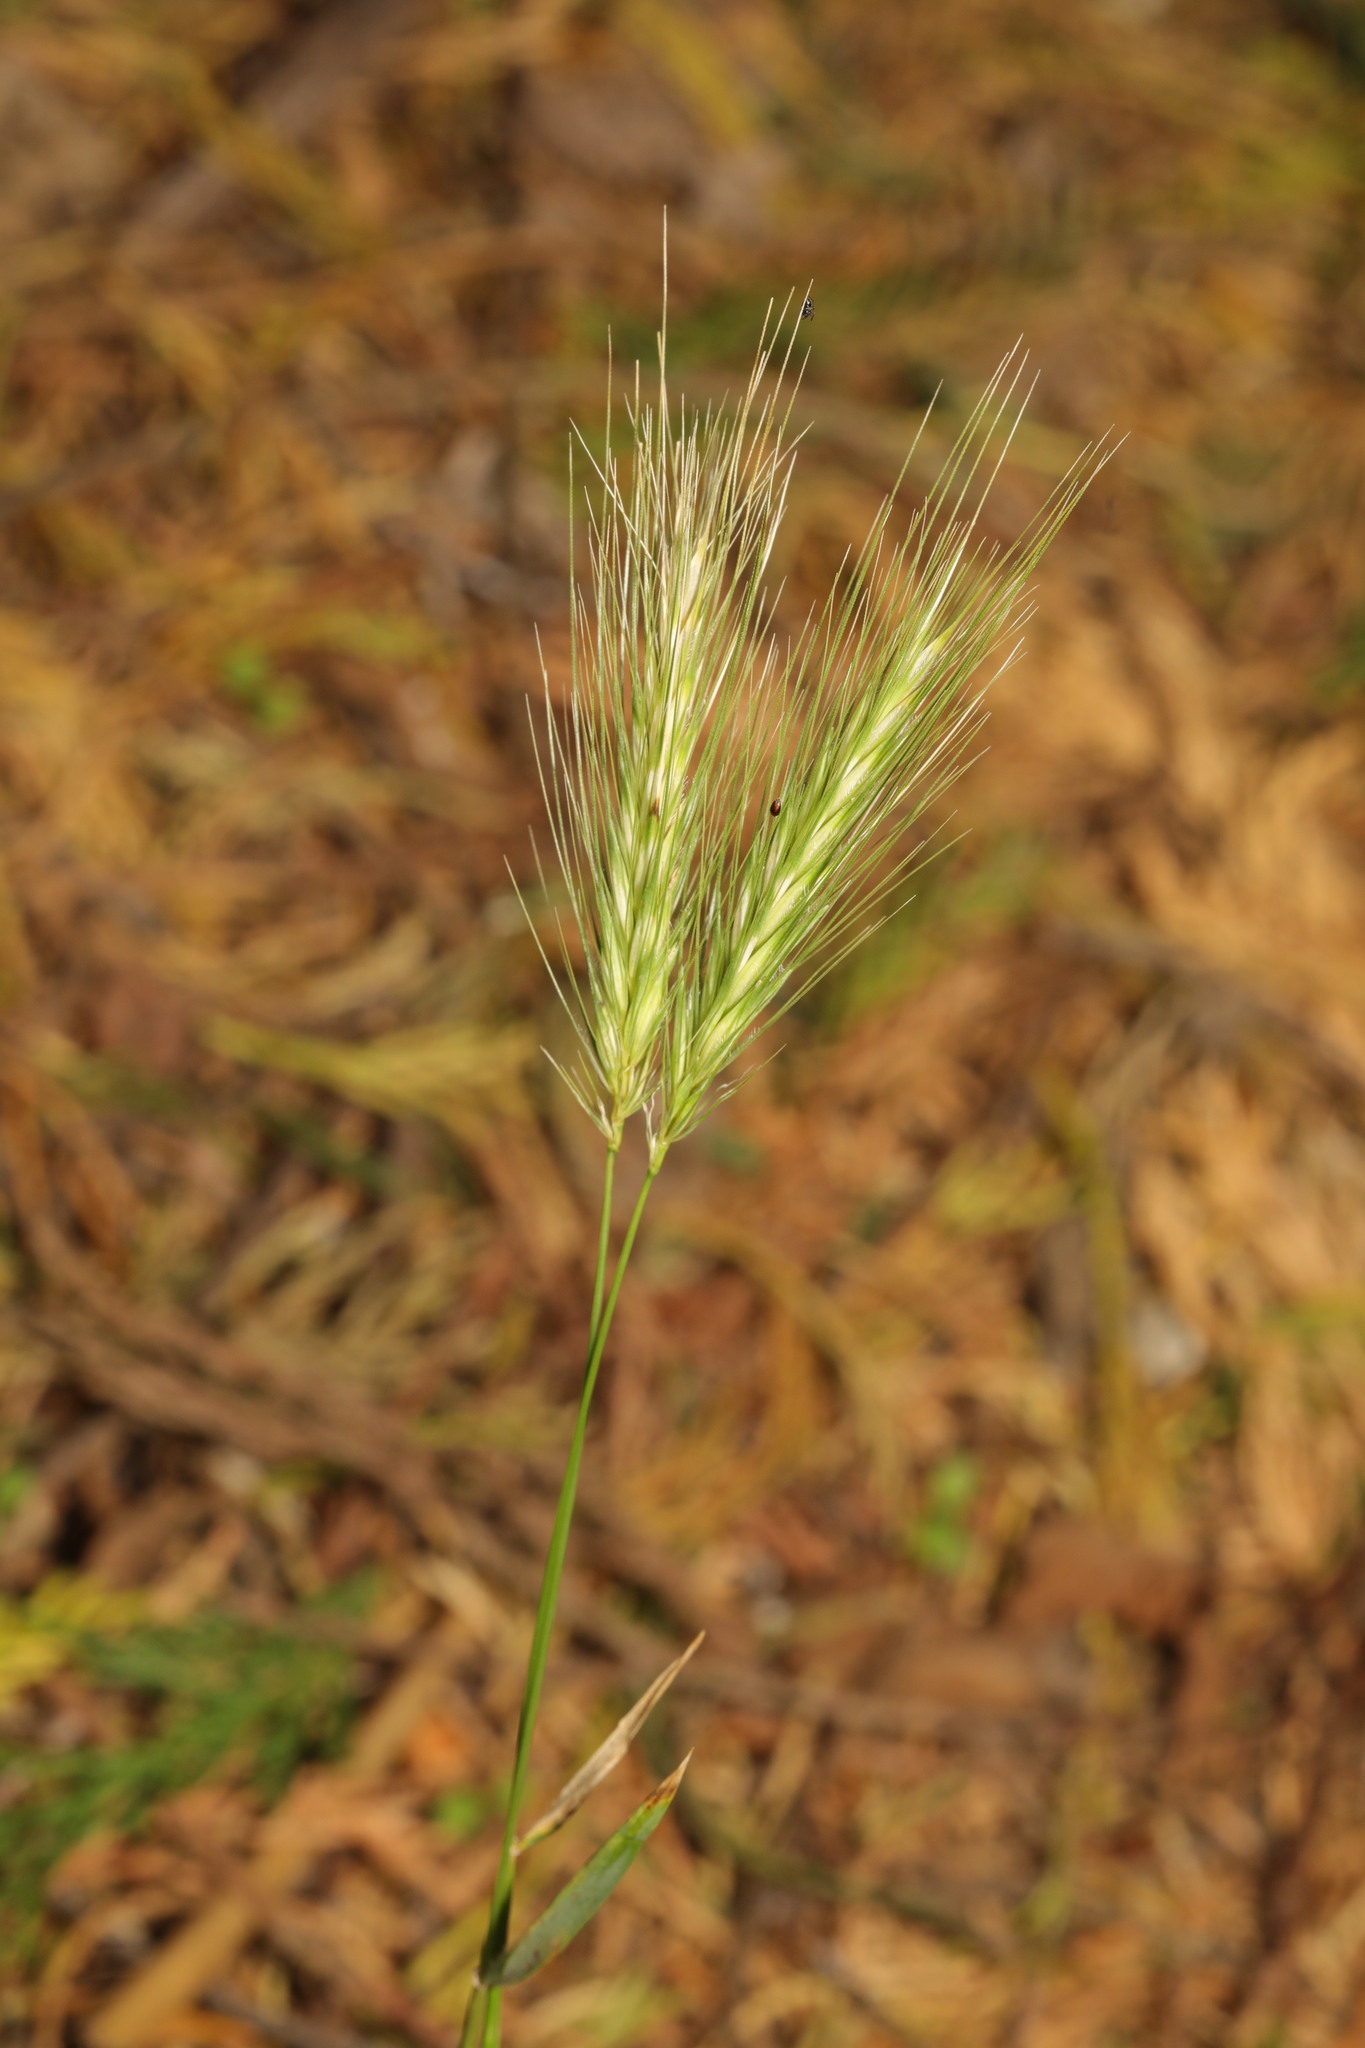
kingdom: Plantae
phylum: Tracheophyta
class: Liliopsida
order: Poales
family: Poaceae
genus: Hordeum
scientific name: Hordeum murinum
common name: Wall barley
